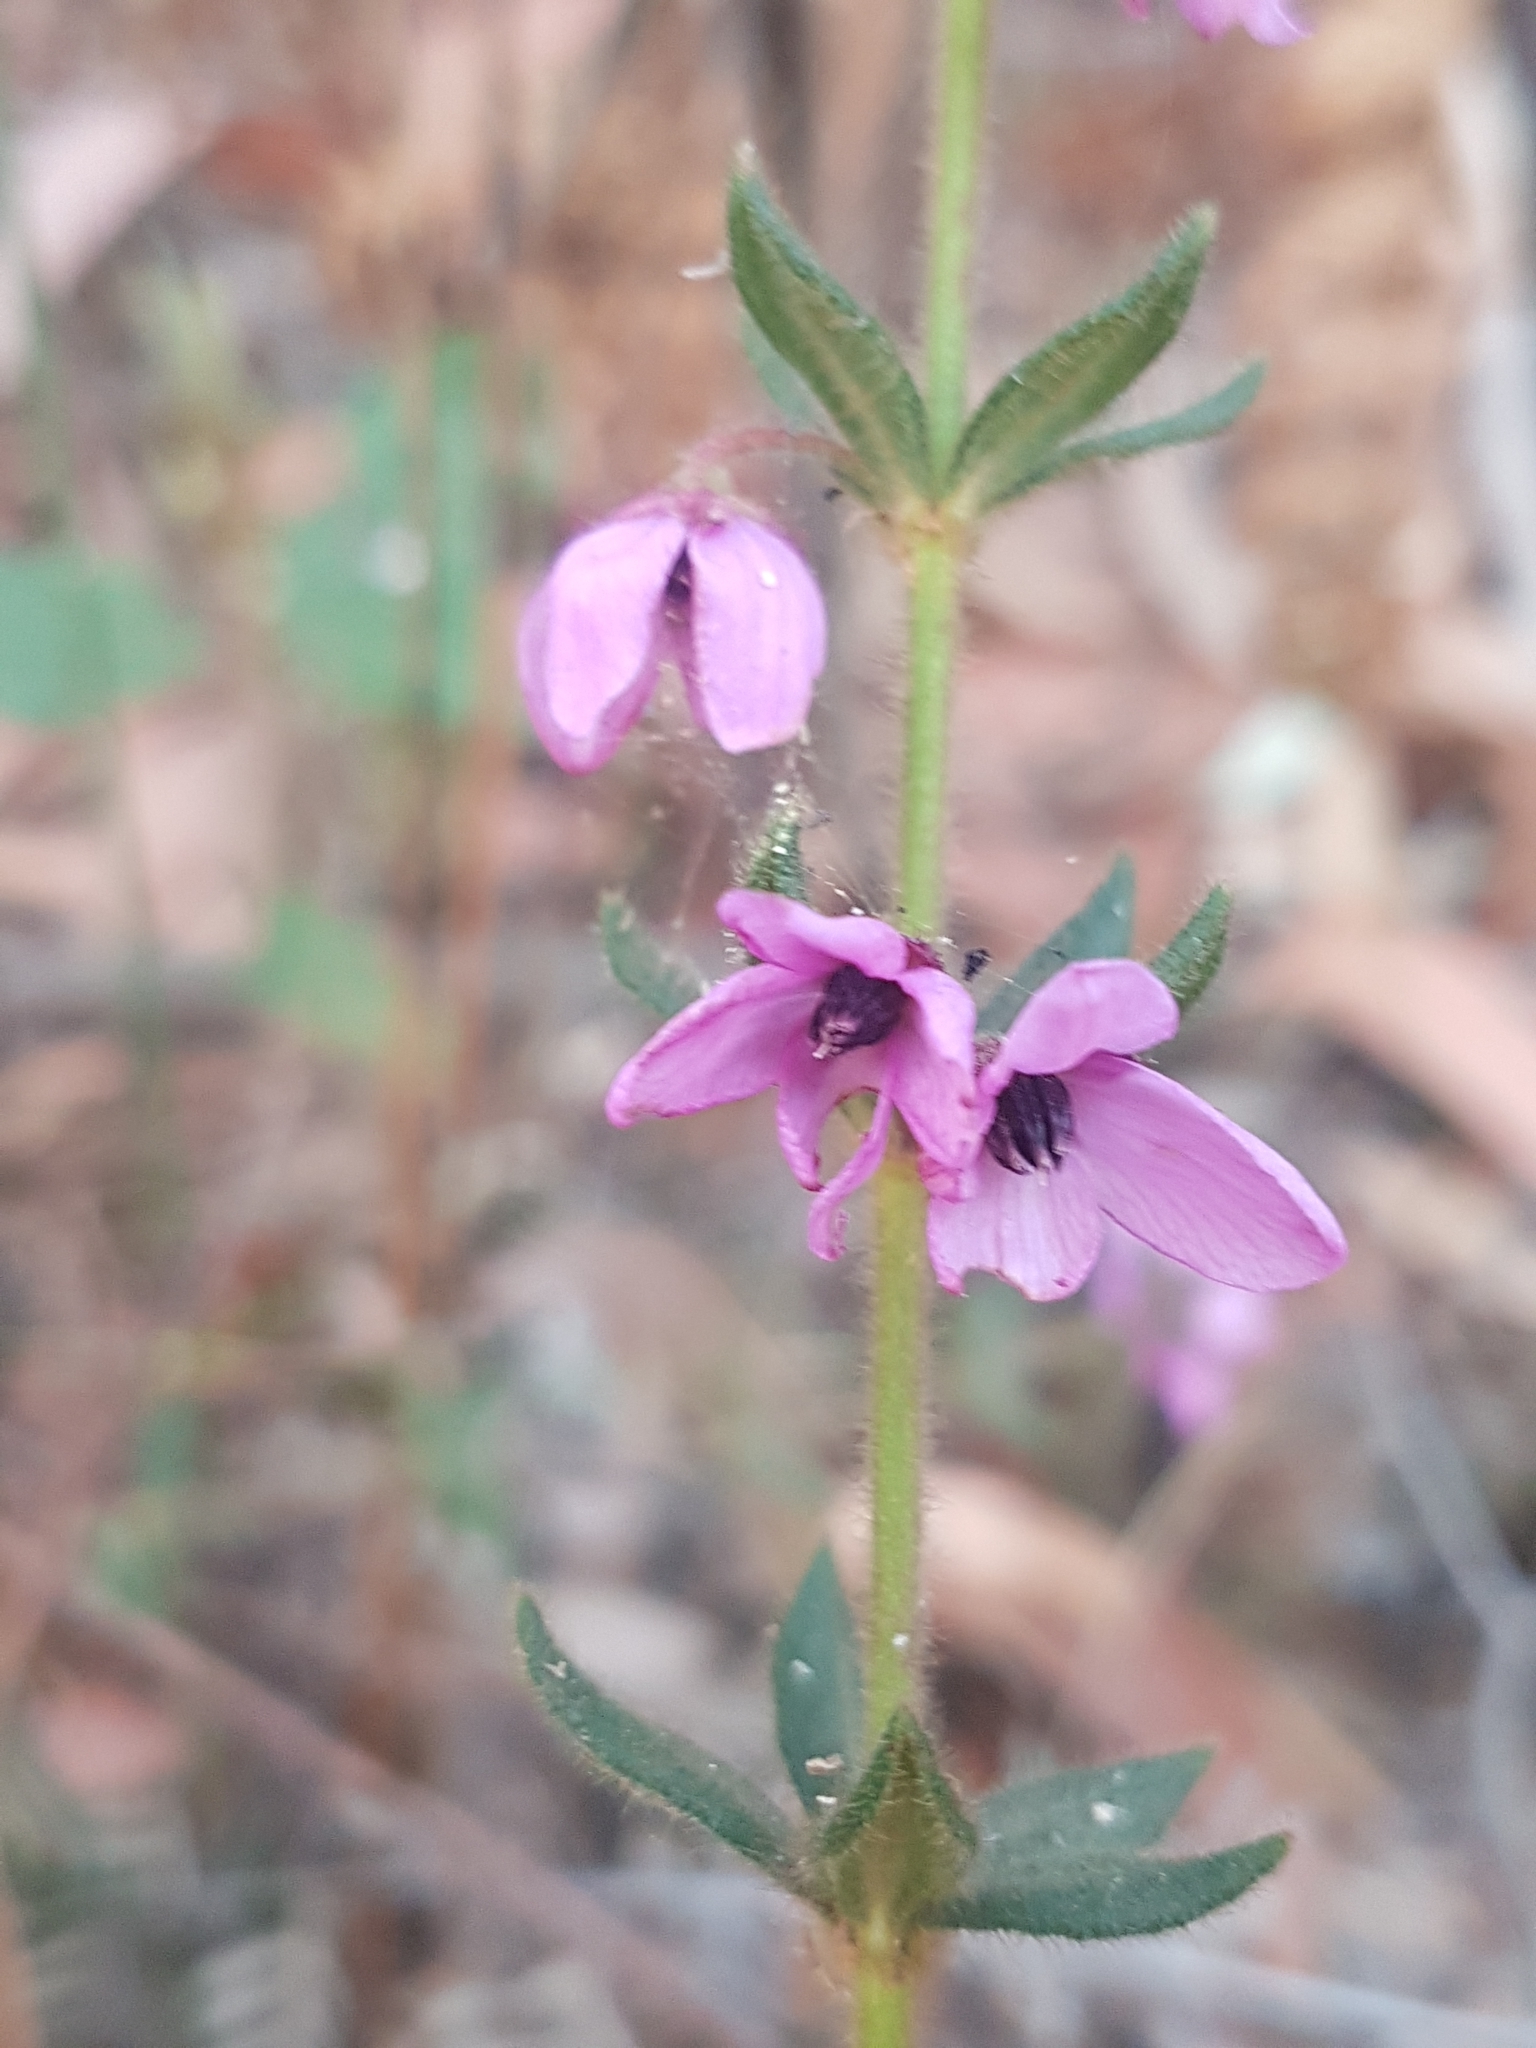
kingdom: Plantae
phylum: Tracheophyta
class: Magnoliopsida
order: Oxalidales
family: Elaeocarpaceae
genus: Tetratheca
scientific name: Tetratheca thymifolia
